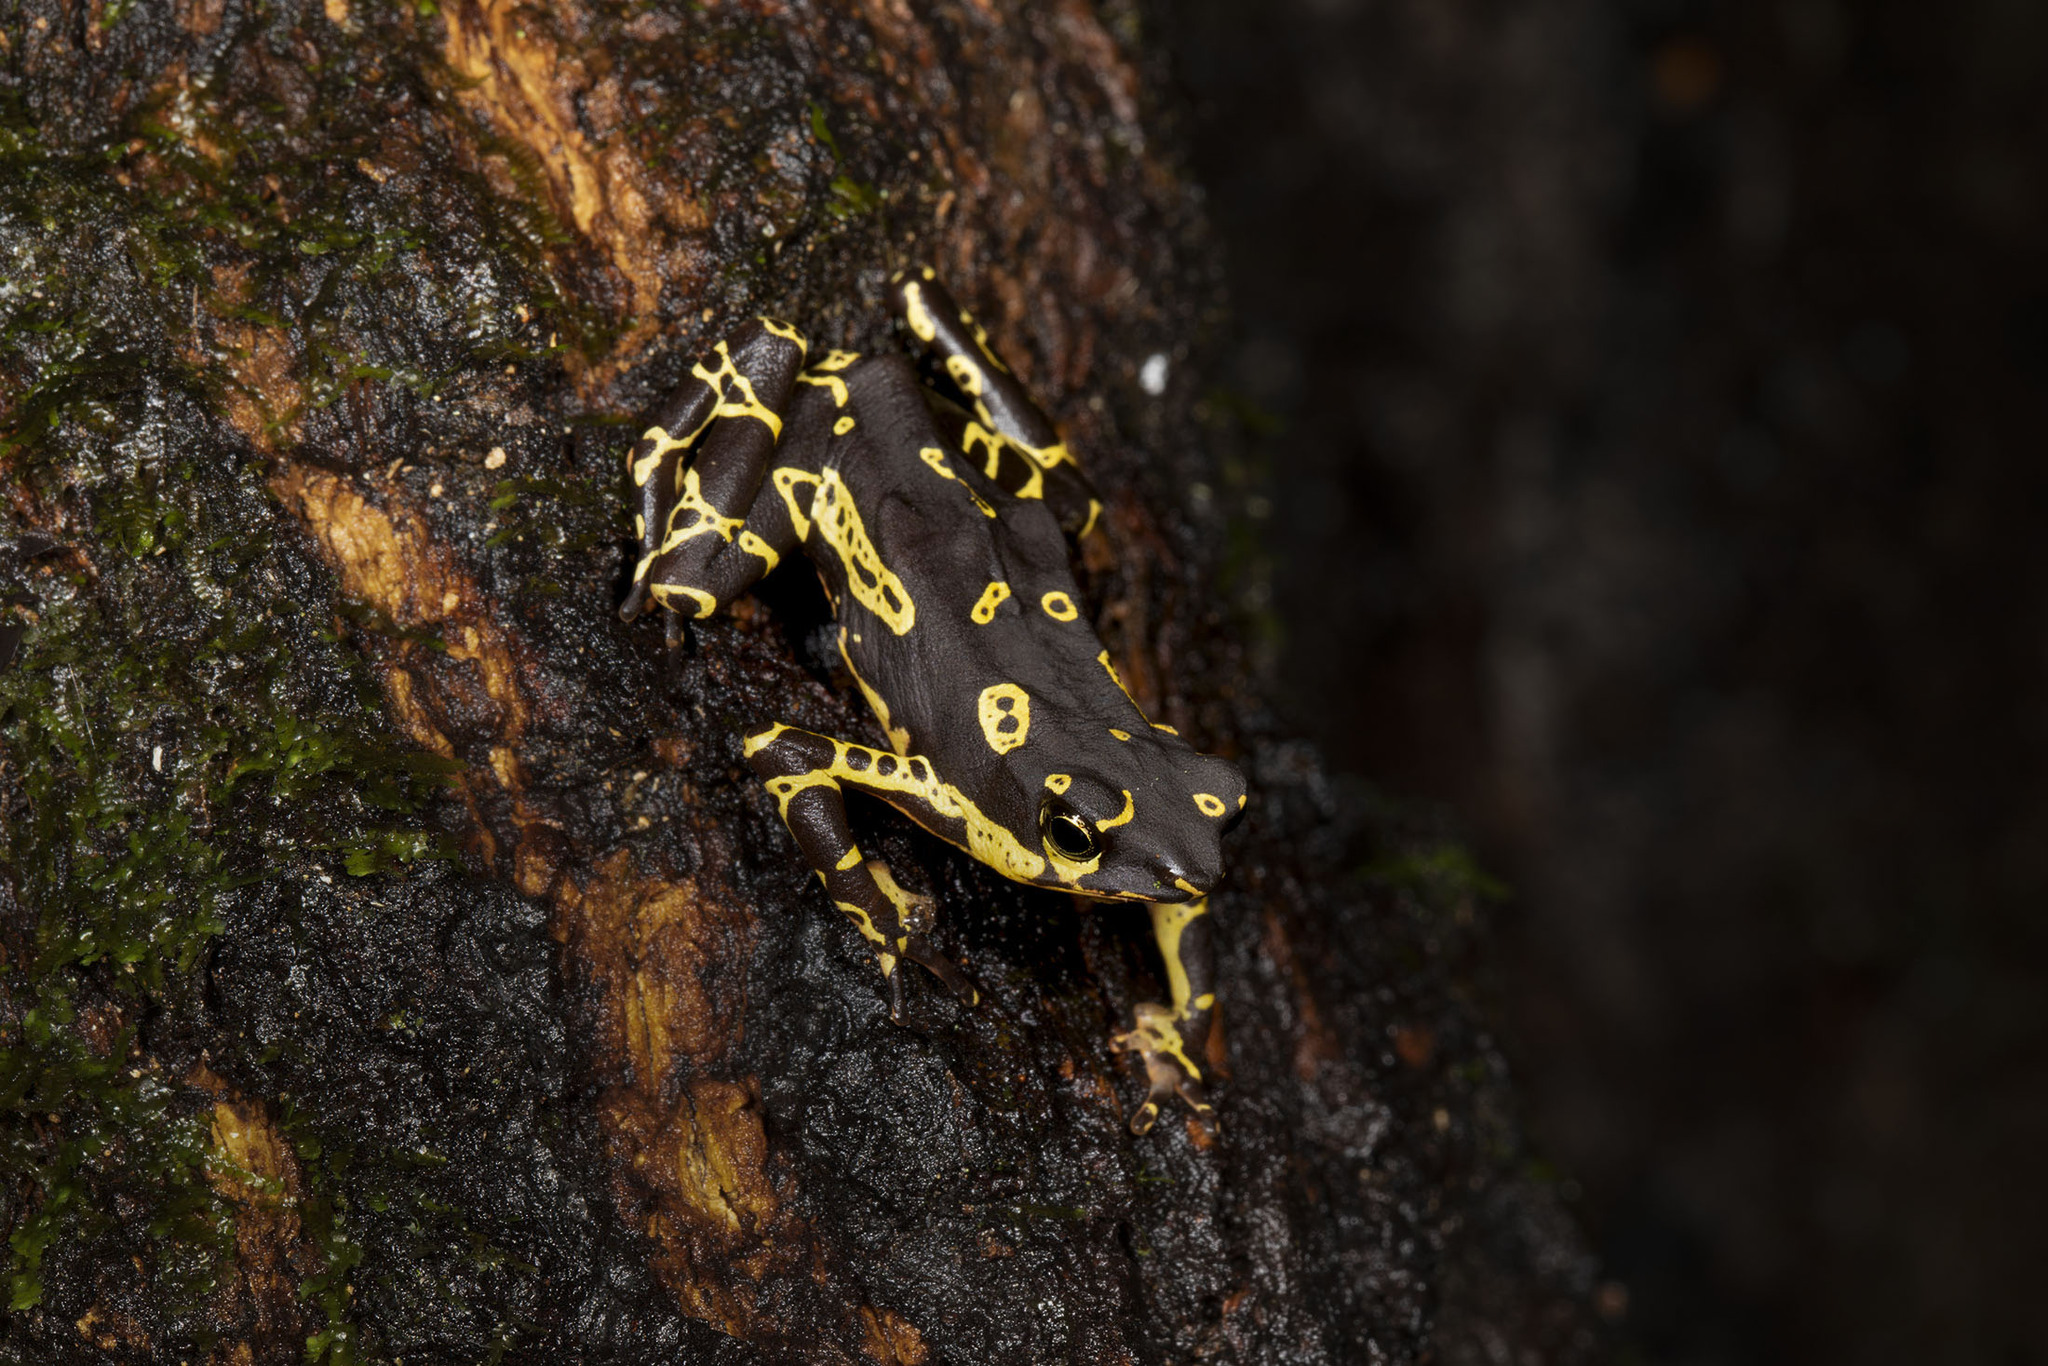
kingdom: Animalia
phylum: Chordata
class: Amphibia
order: Anura
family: Bufonidae
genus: Atelopus
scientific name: Atelopus hoogmoedi
